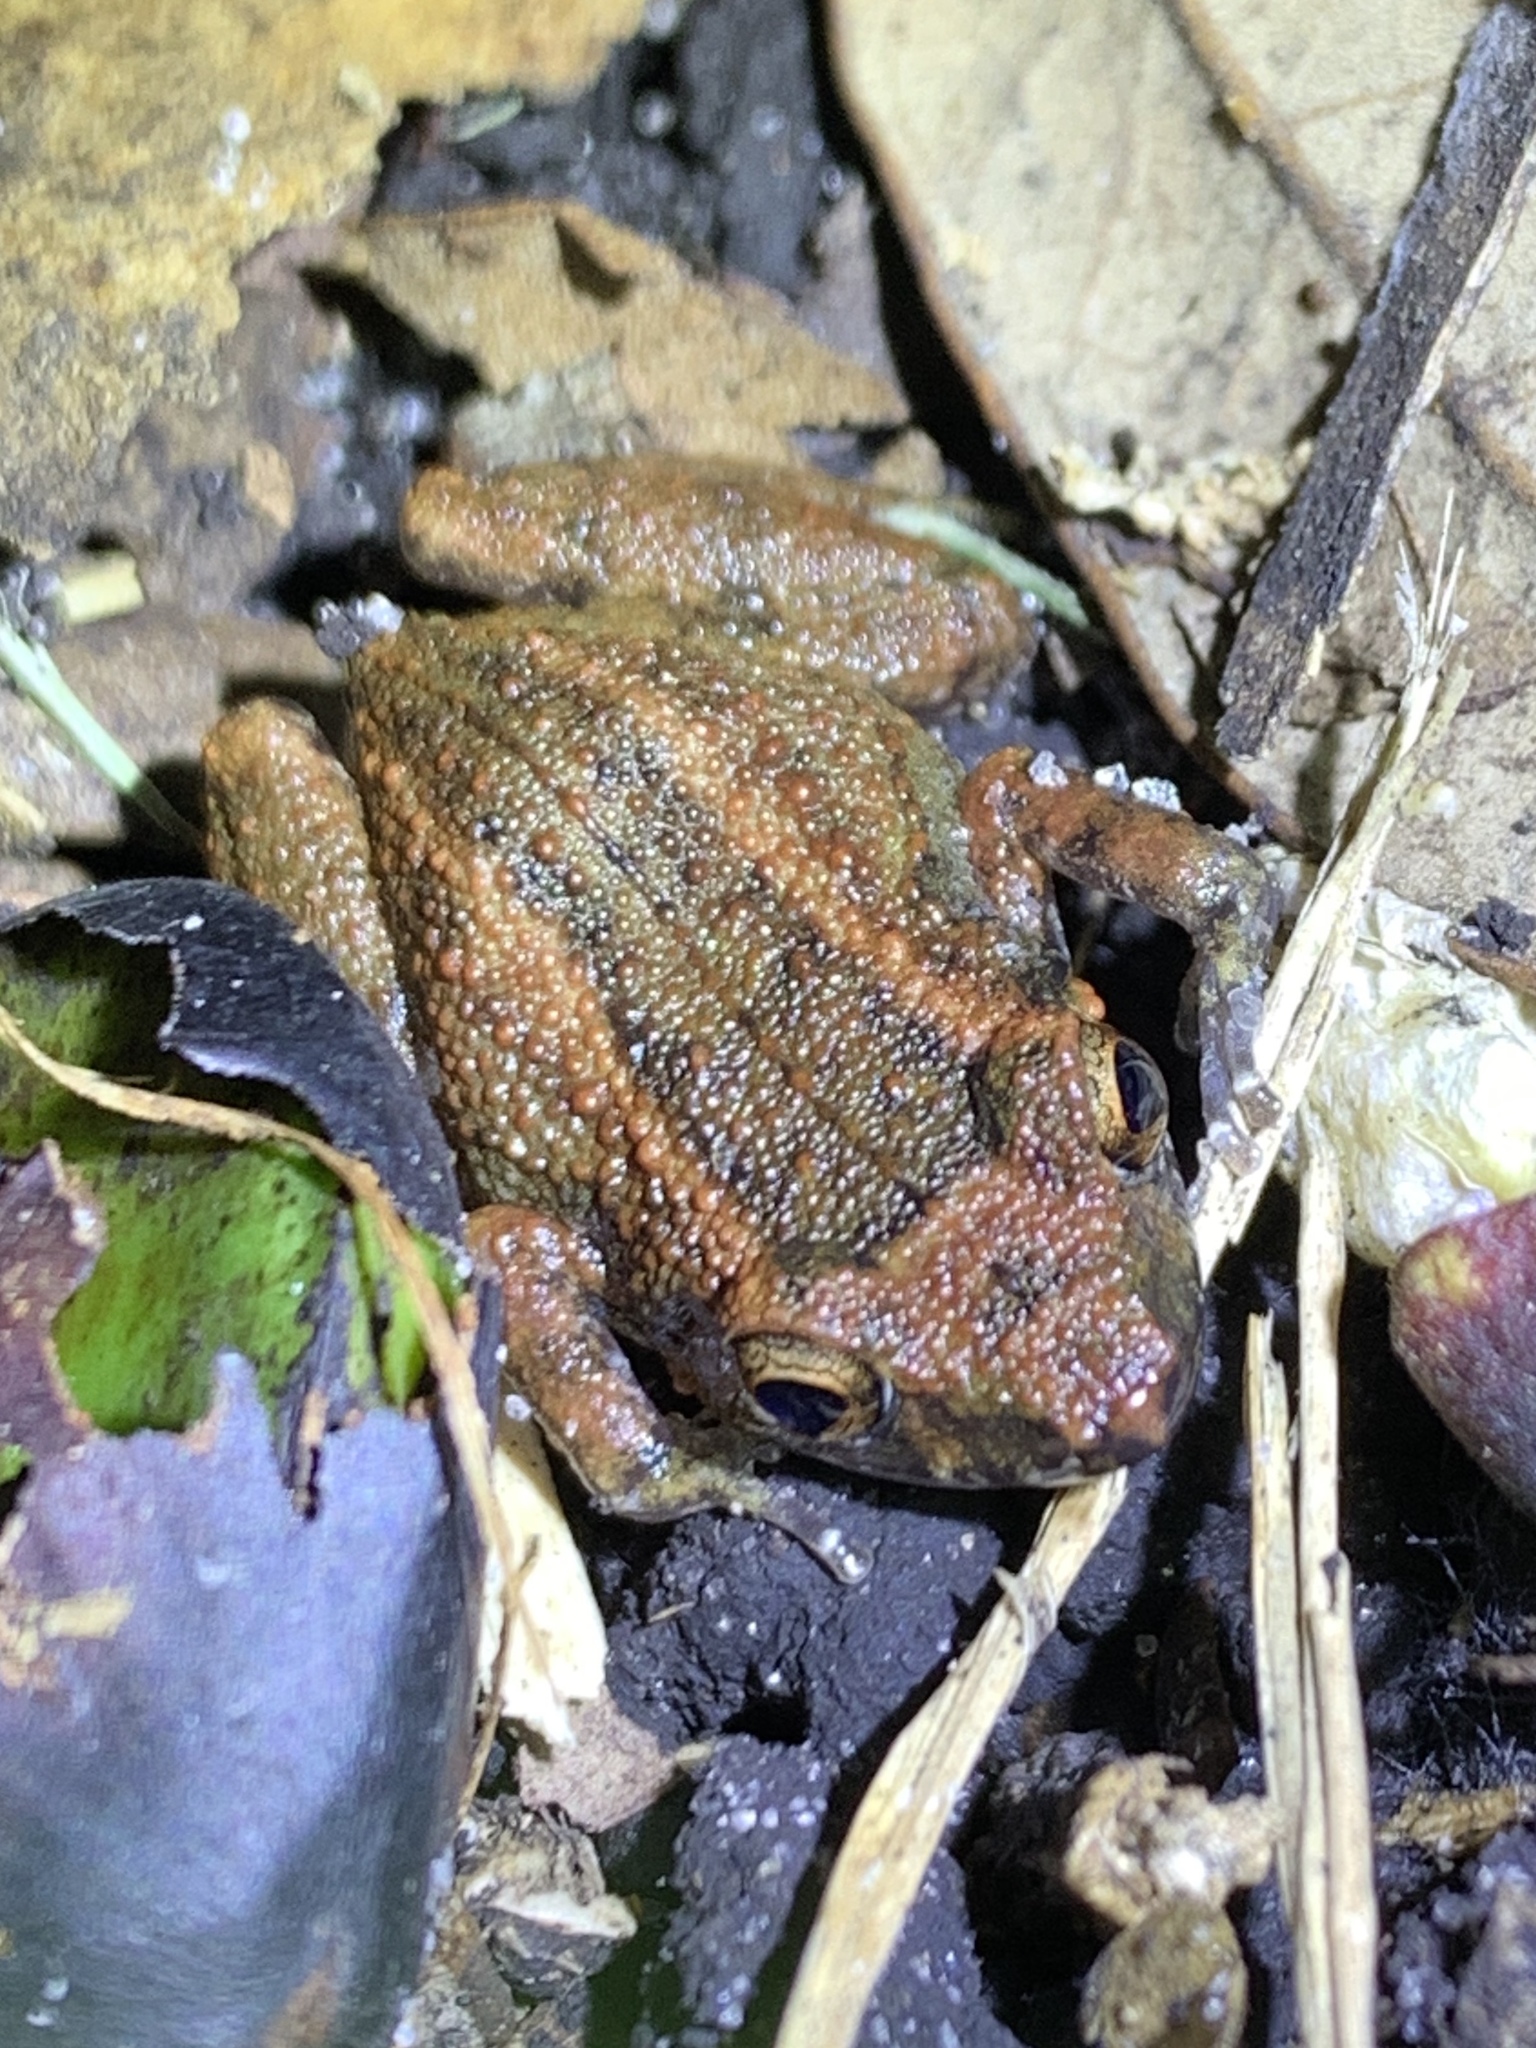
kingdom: Animalia
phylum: Chordata
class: Amphibia
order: Anura
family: Eleutherodactylidae
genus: Eleutherodactylus
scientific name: Eleutherodactylus planirostris
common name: Greenhouse frog
